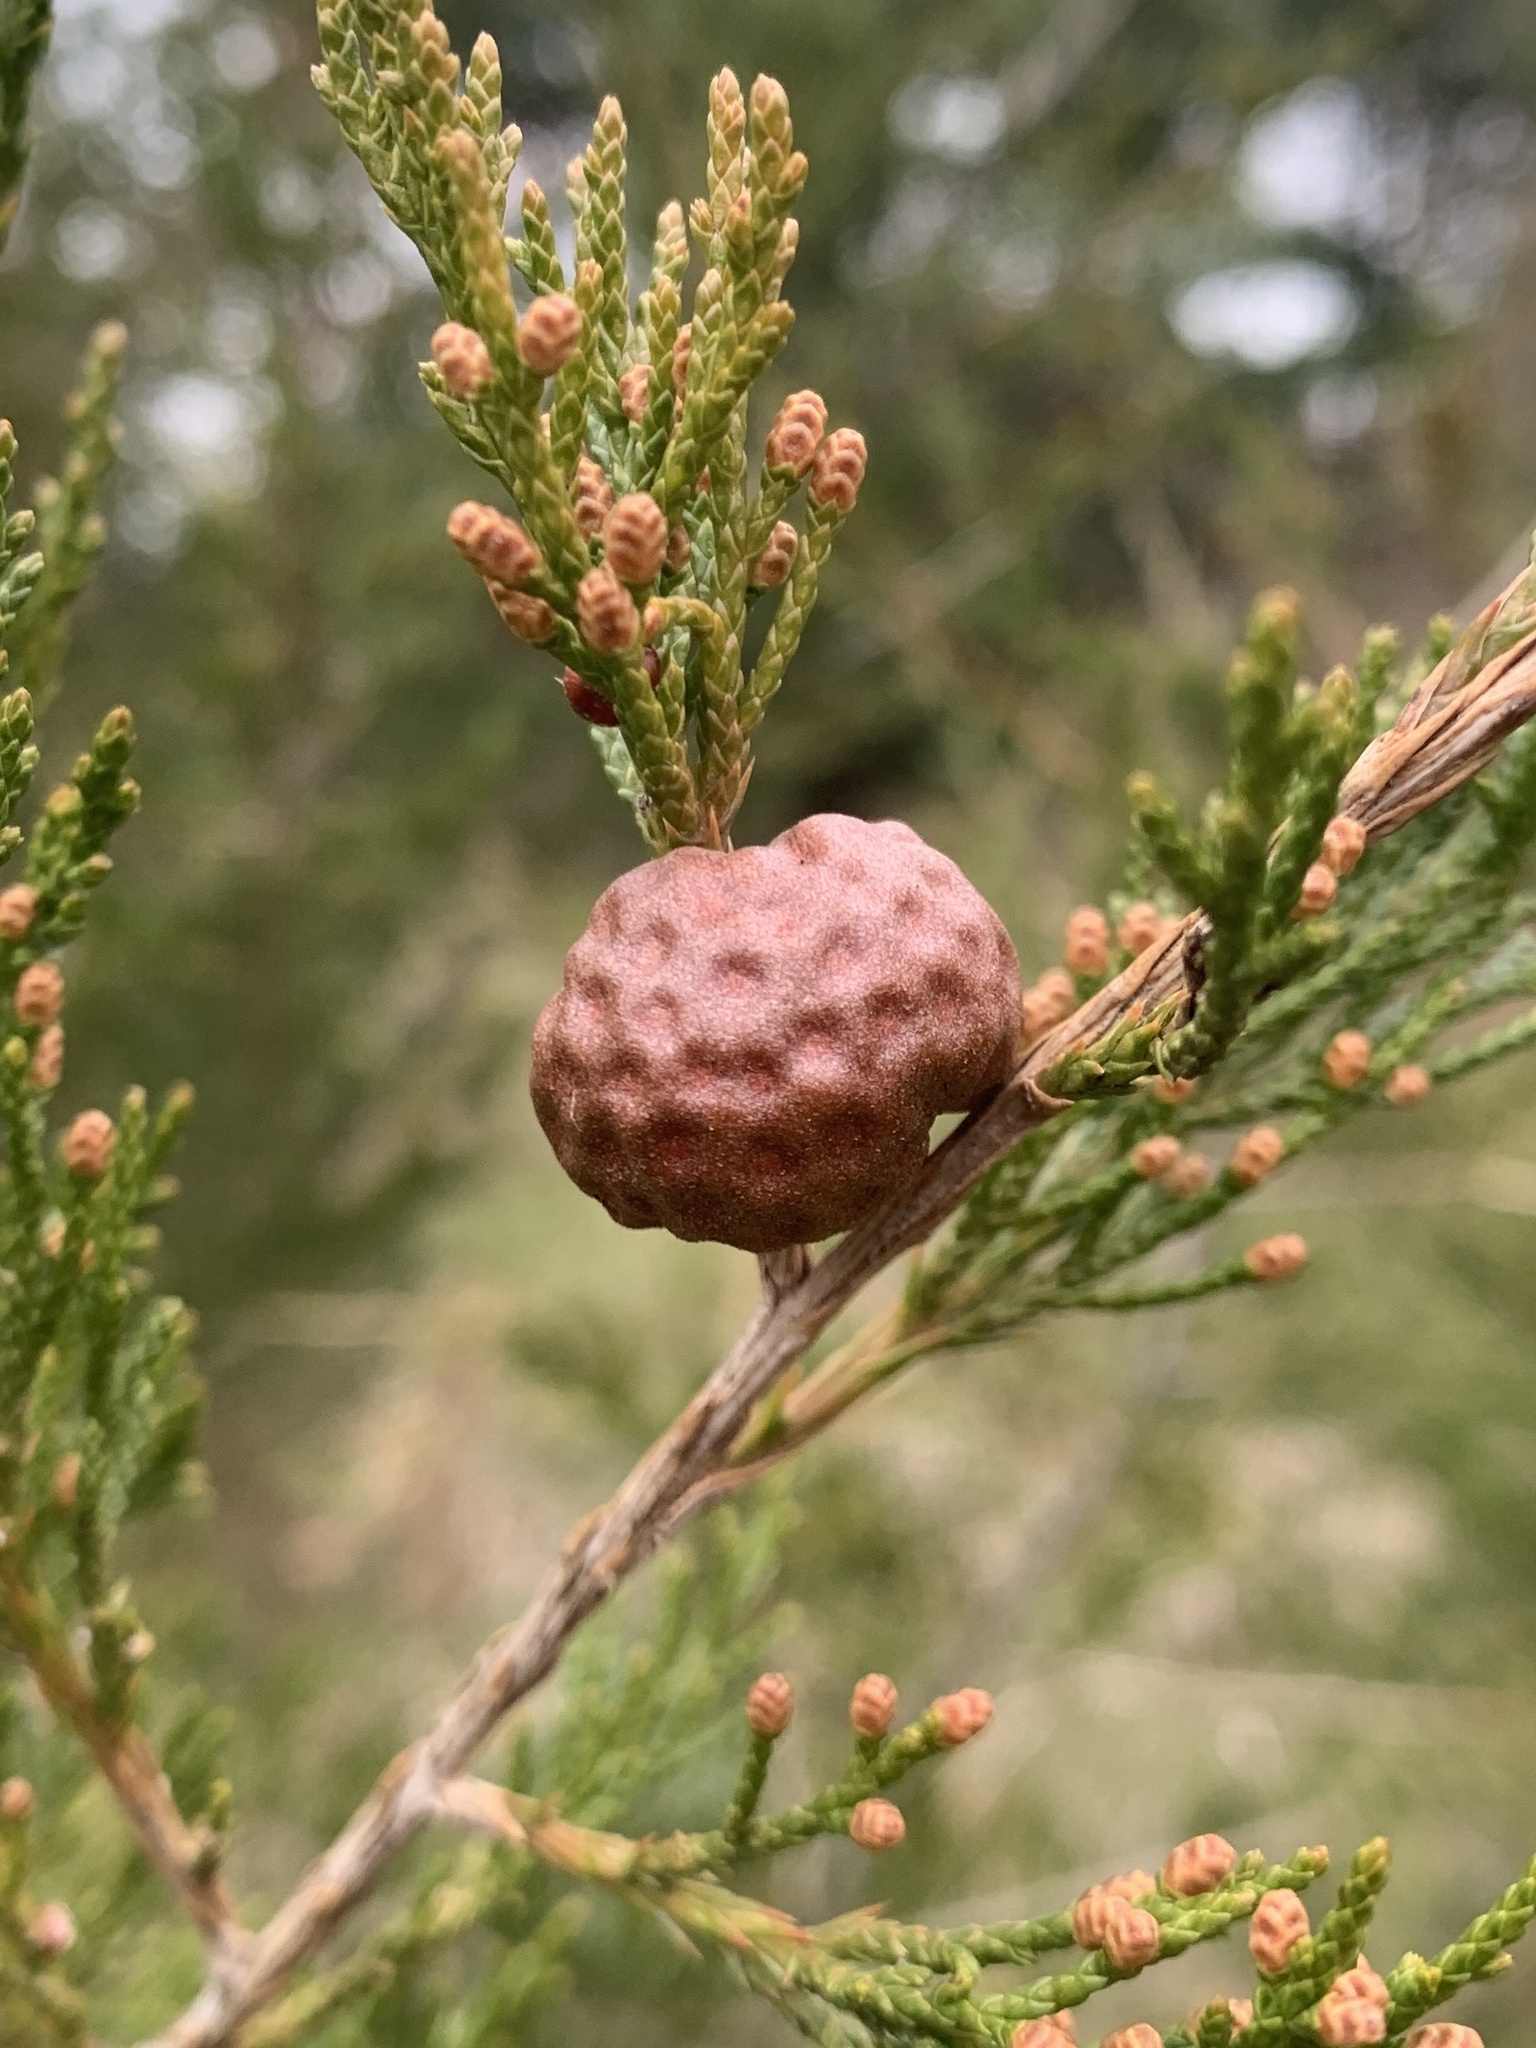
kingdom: Fungi
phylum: Basidiomycota
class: Pucciniomycetes
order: Pucciniales
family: Gymnosporangiaceae
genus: Gymnosporangium
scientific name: Gymnosporangium juniperi-virginianae
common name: Juniper-apple rust
